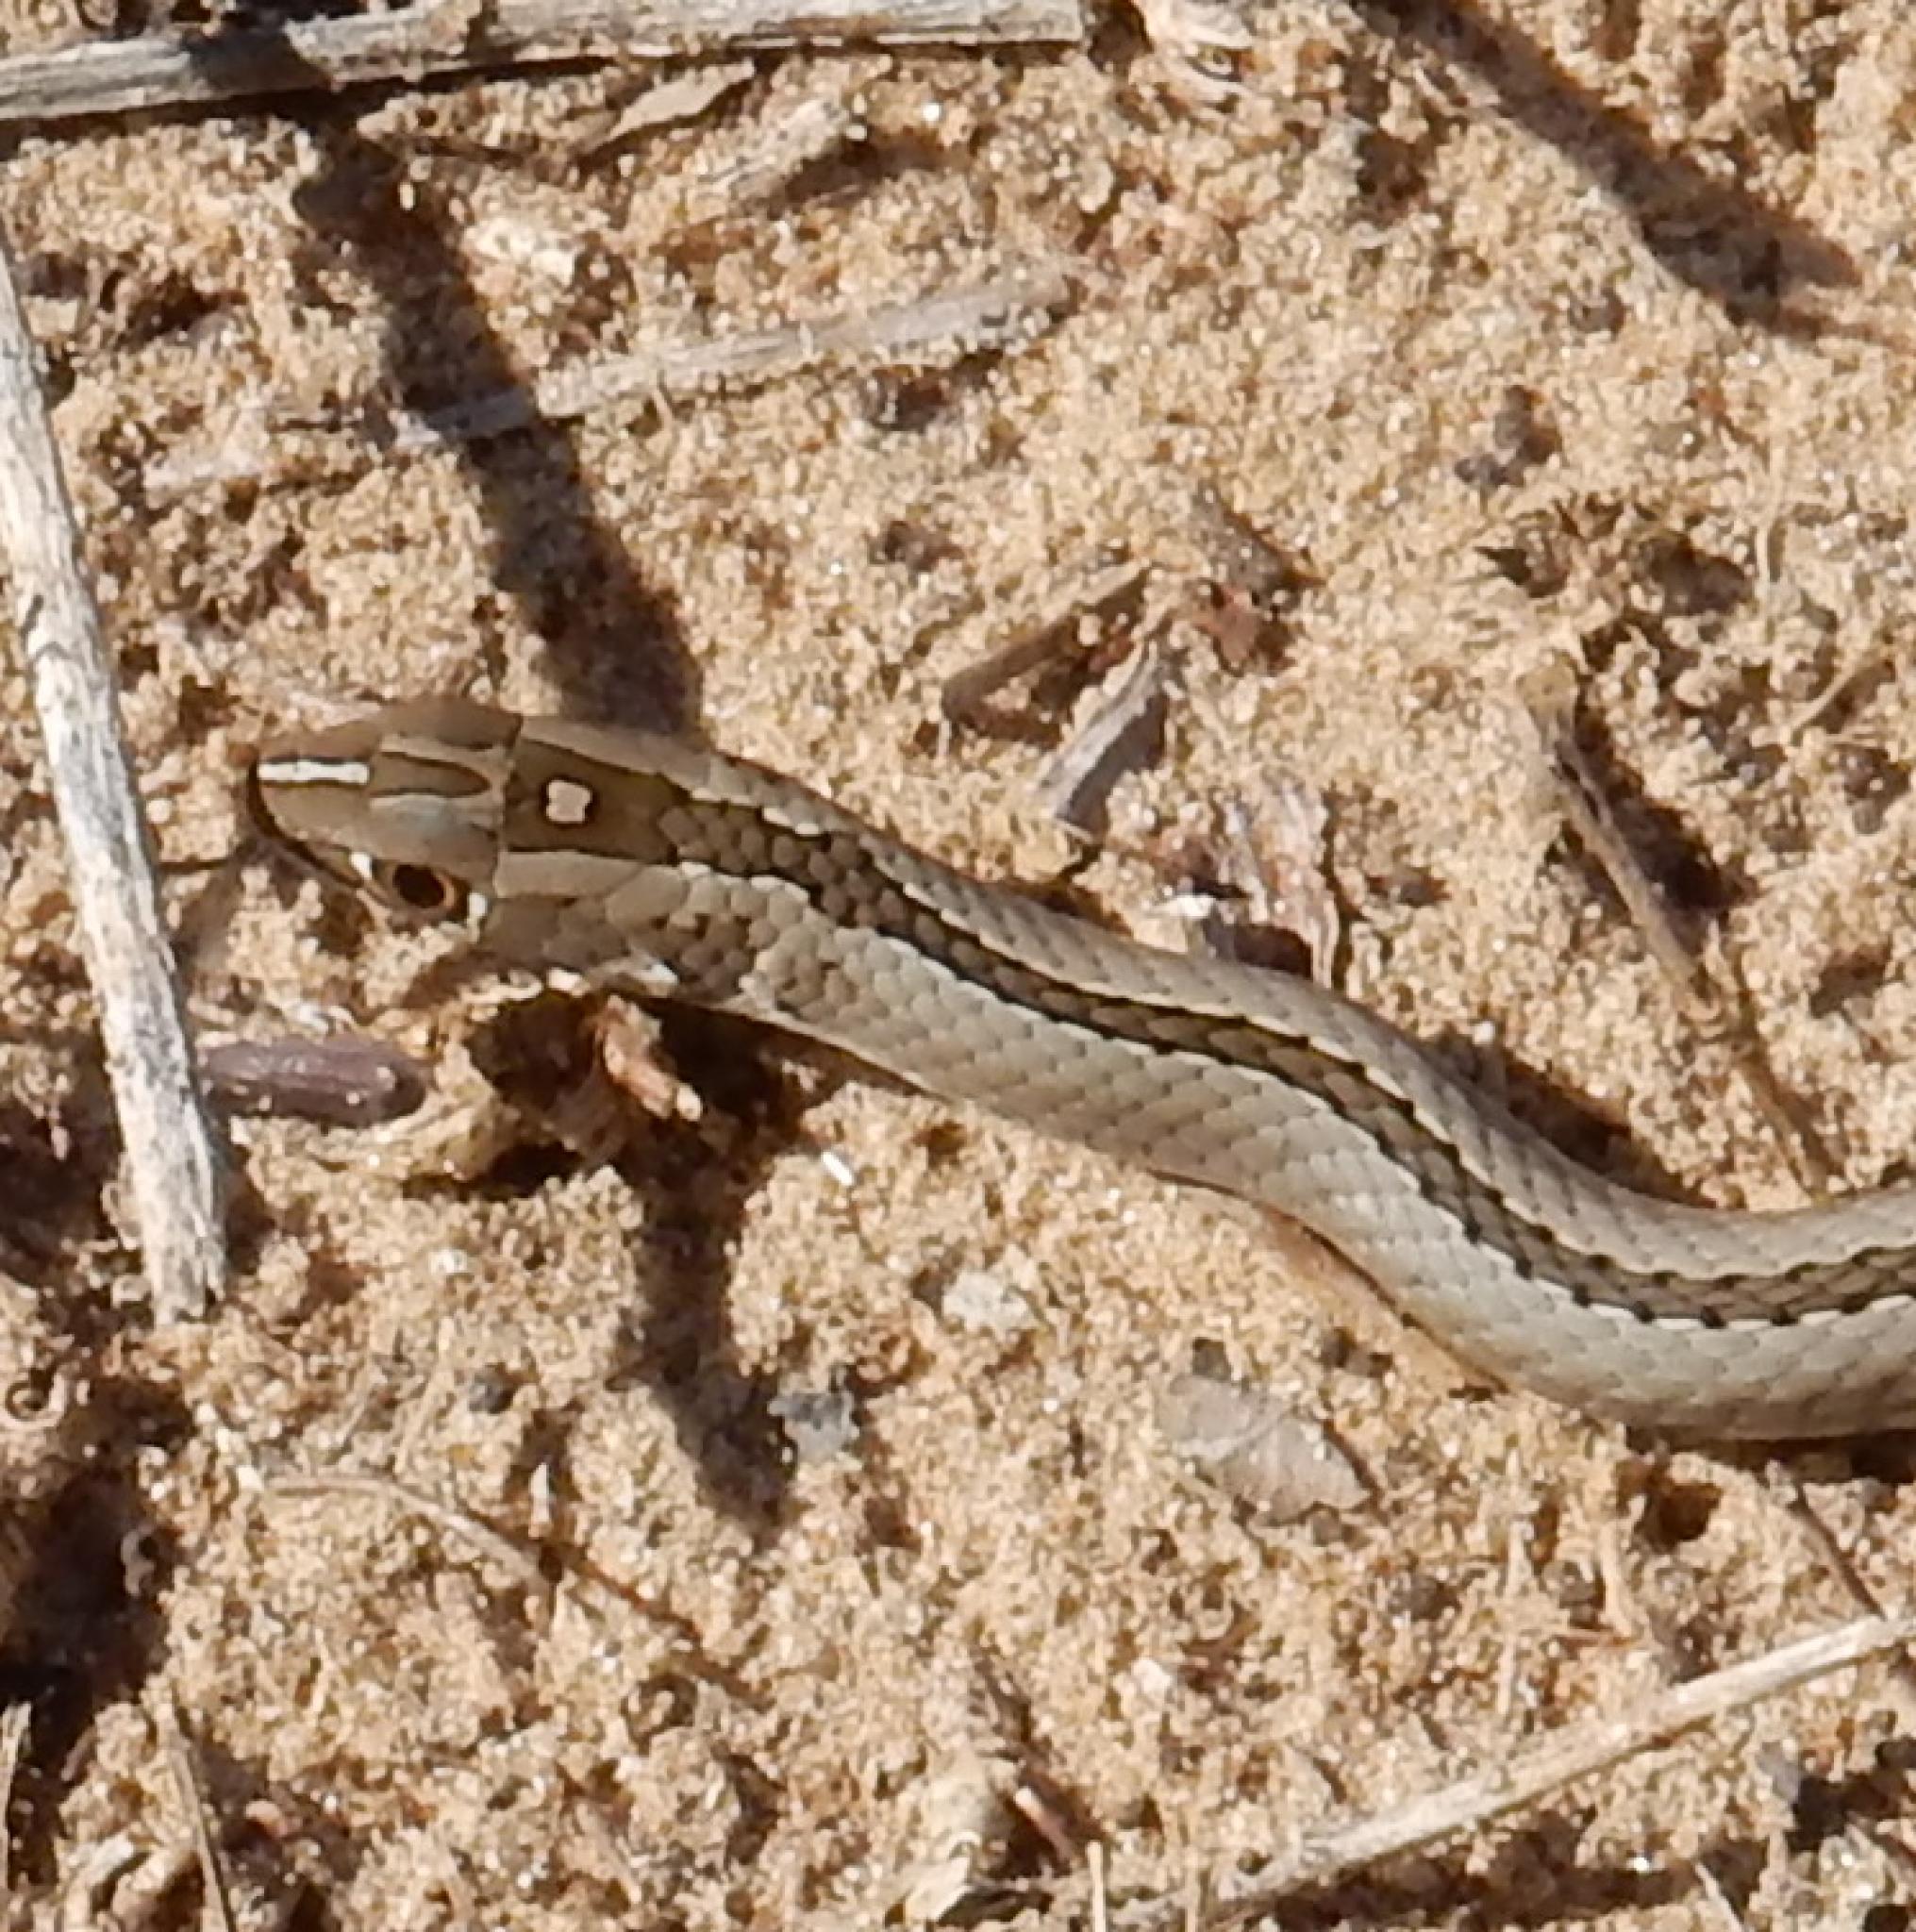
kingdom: Animalia
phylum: Chordata
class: Squamata
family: Psammophiidae
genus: Psammophis
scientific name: Psammophis crucifer
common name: Cross-marked grass snake
